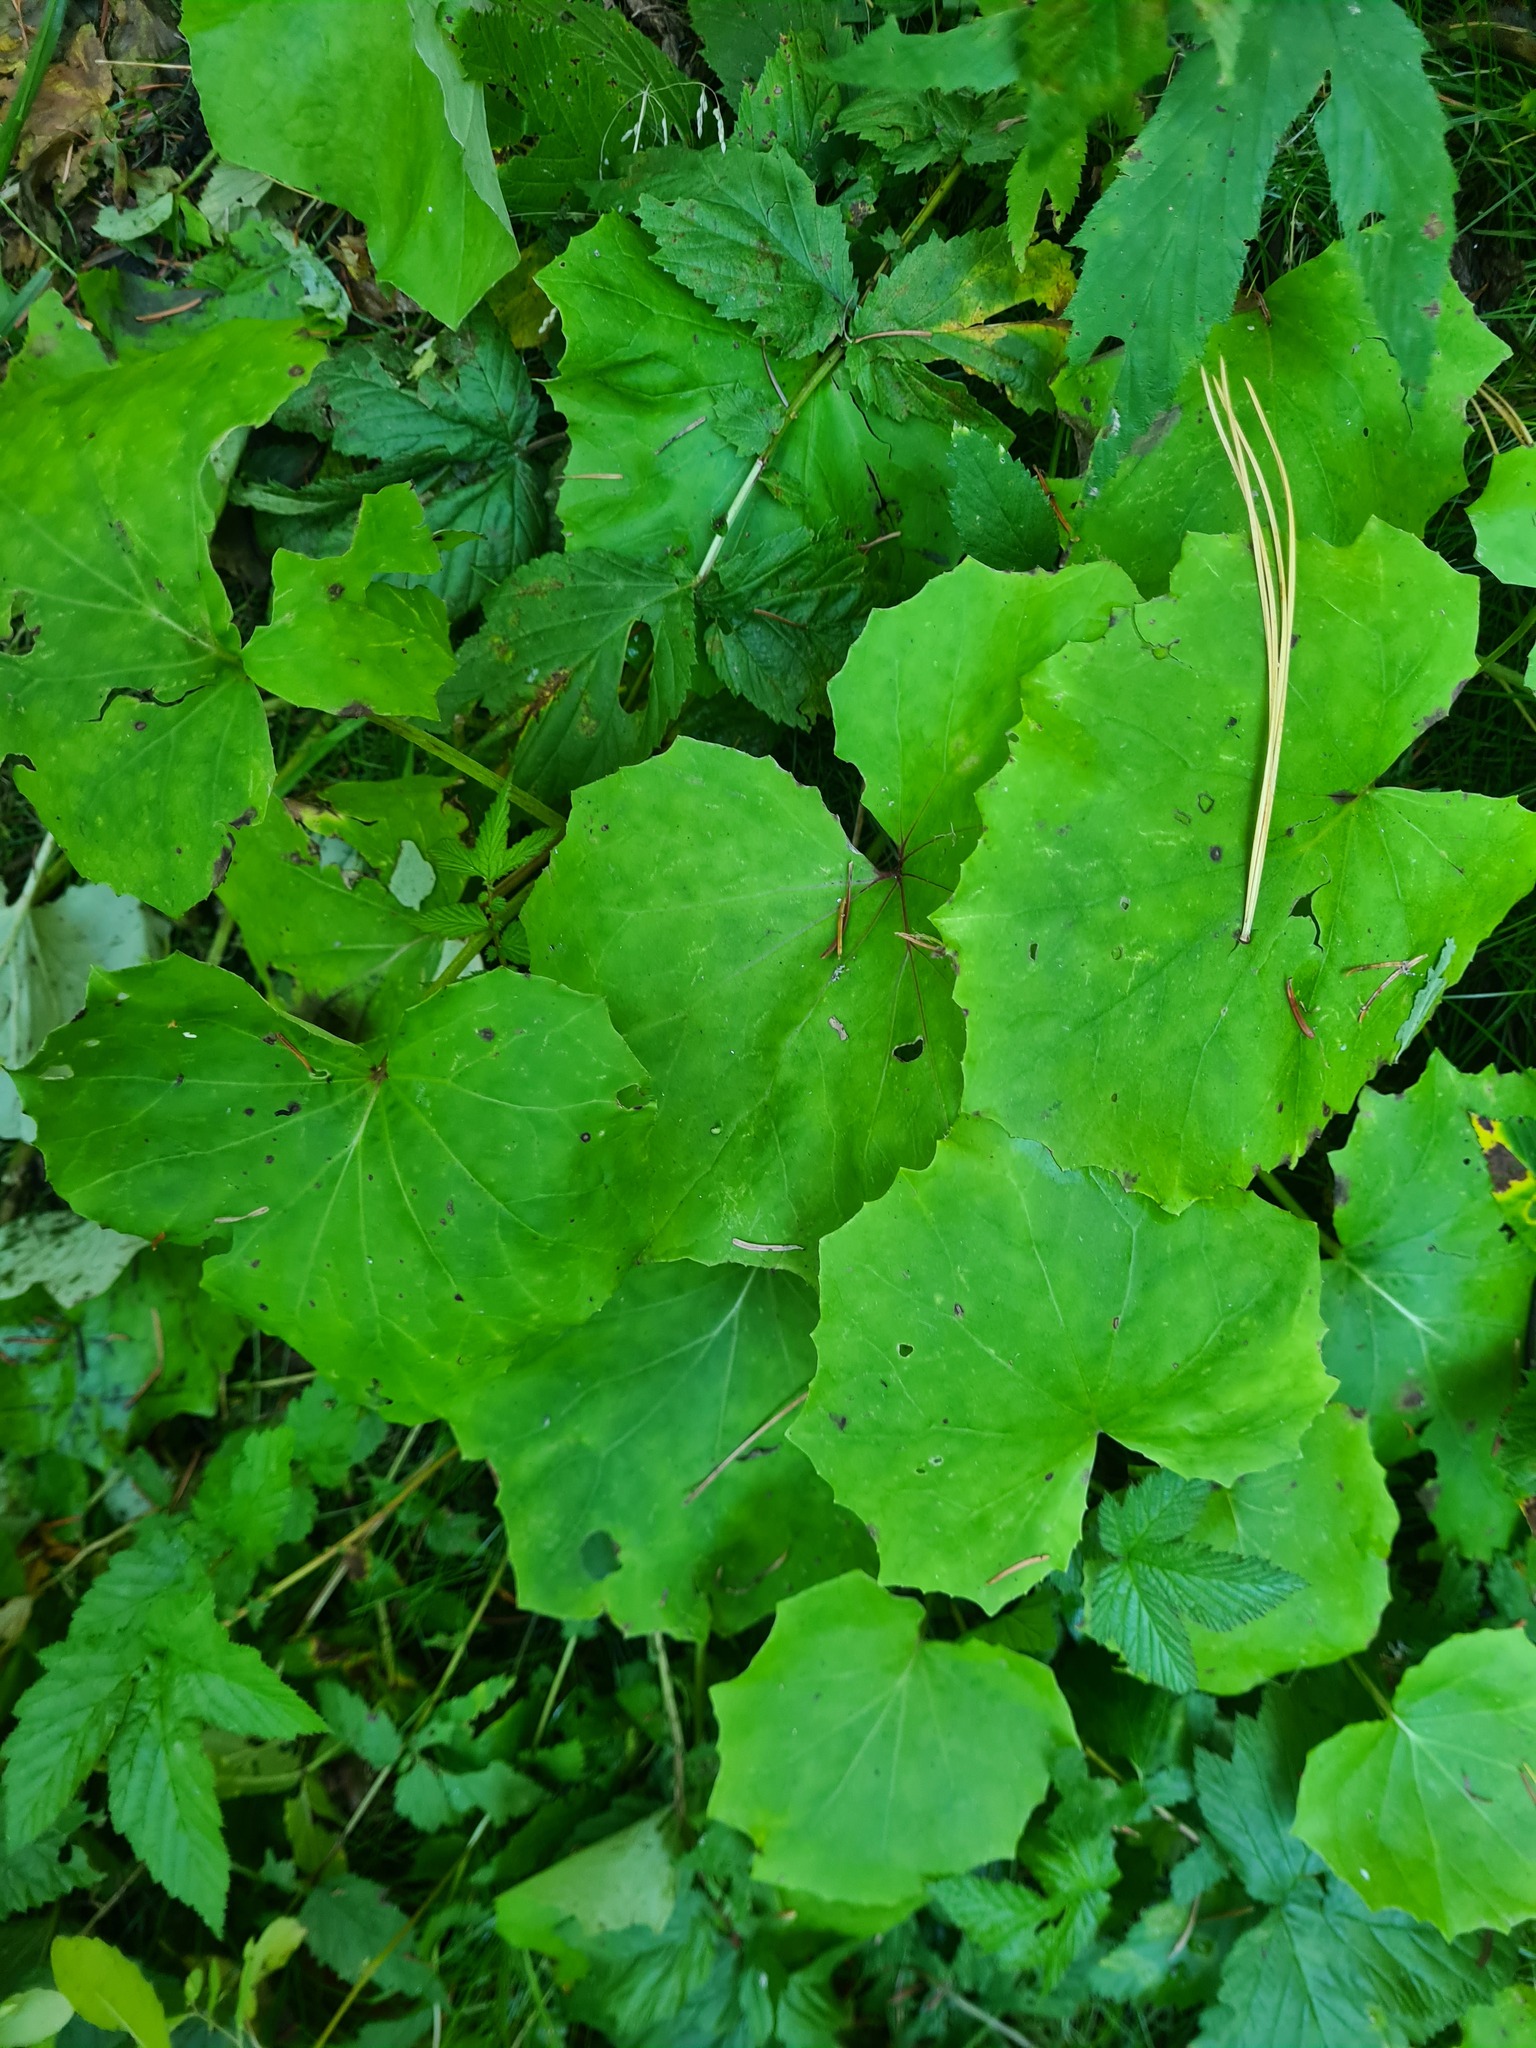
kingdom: Plantae
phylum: Tracheophyta
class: Magnoliopsida
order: Asterales
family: Asteraceae
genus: Tussilago
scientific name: Tussilago farfara
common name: Coltsfoot
